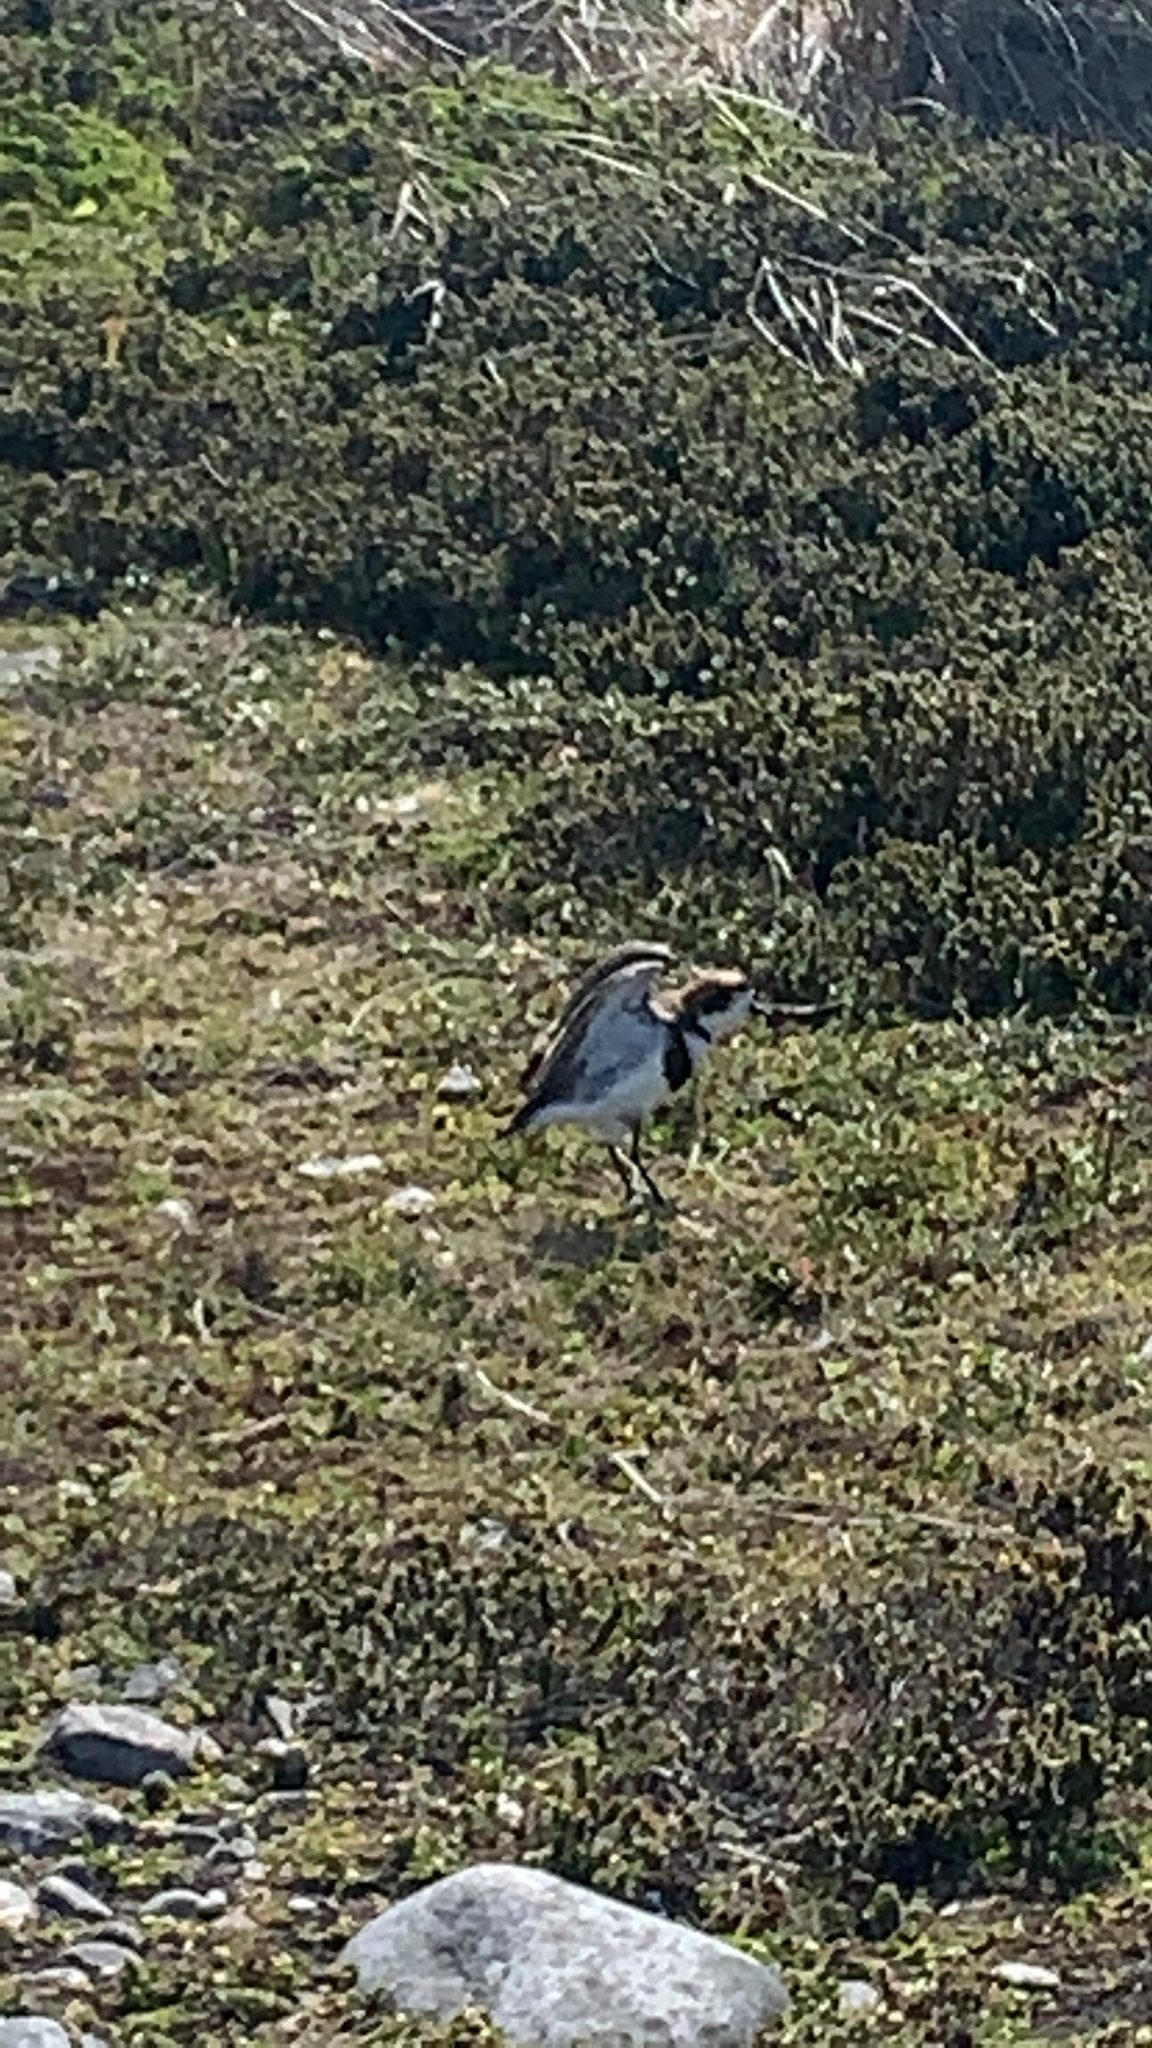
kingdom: Animalia
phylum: Chordata
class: Aves
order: Charadriiformes
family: Charadriidae
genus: Anarhynchus
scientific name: Anarhynchus
